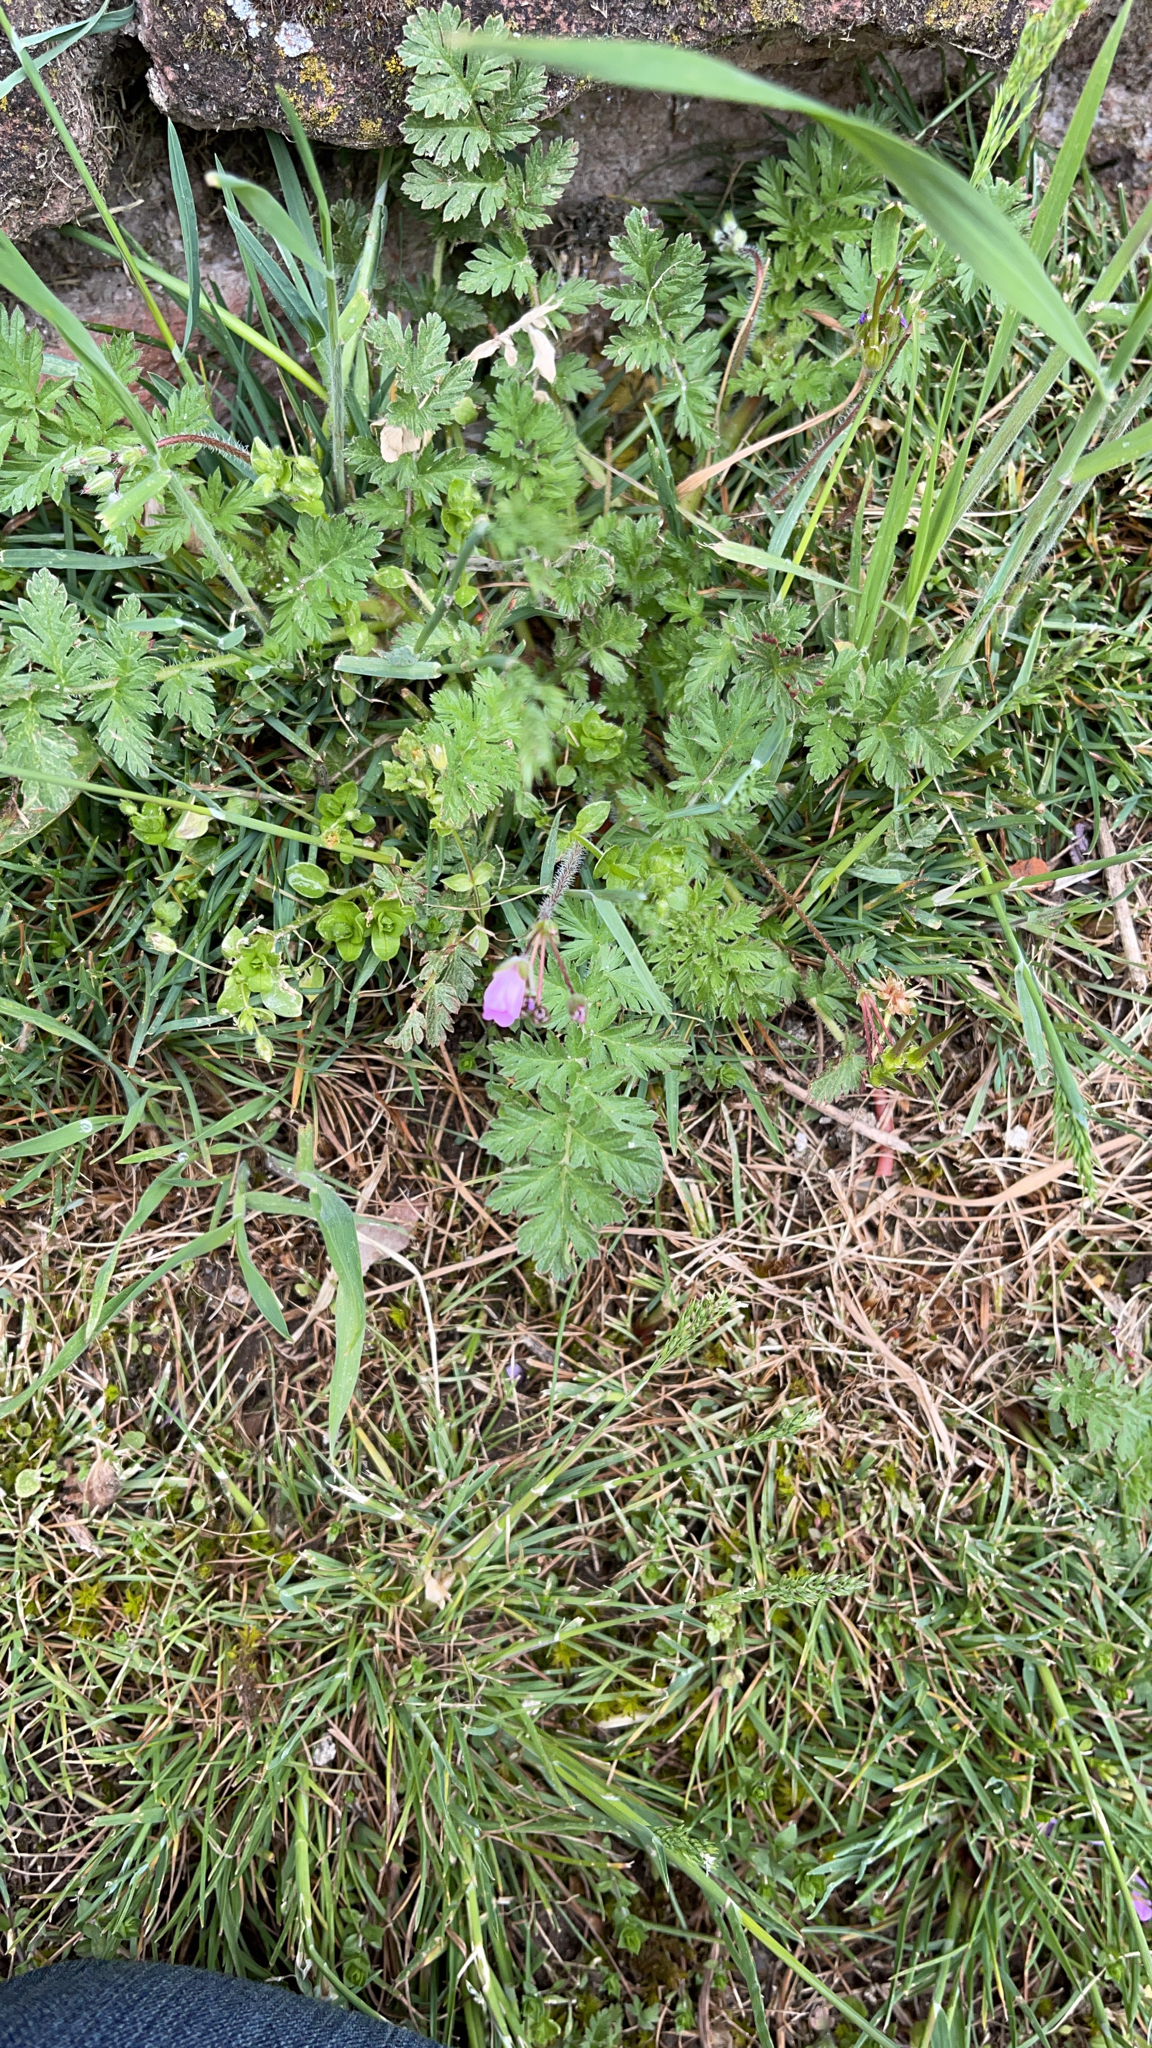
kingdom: Plantae
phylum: Tracheophyta
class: Magnoliopsida
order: Geraniales
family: Geraniaceae
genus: Erodium
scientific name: Erodium cicutarium
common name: Common stork's-bill
